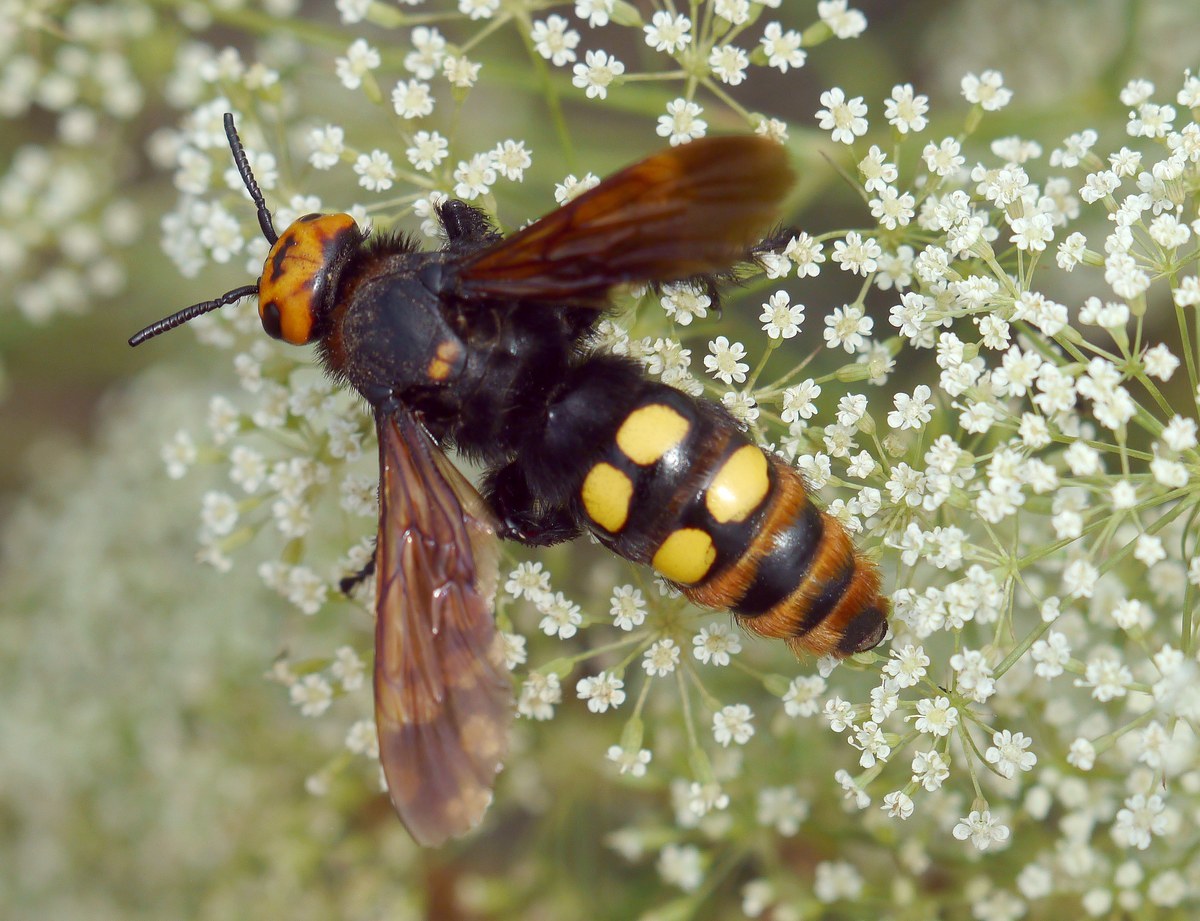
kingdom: Animalia
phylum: Arthropoda
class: Insecta
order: Hymenoptera
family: Scoliidae
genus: Megascolia
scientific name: Megascolia maculata
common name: Mammoth wasp
